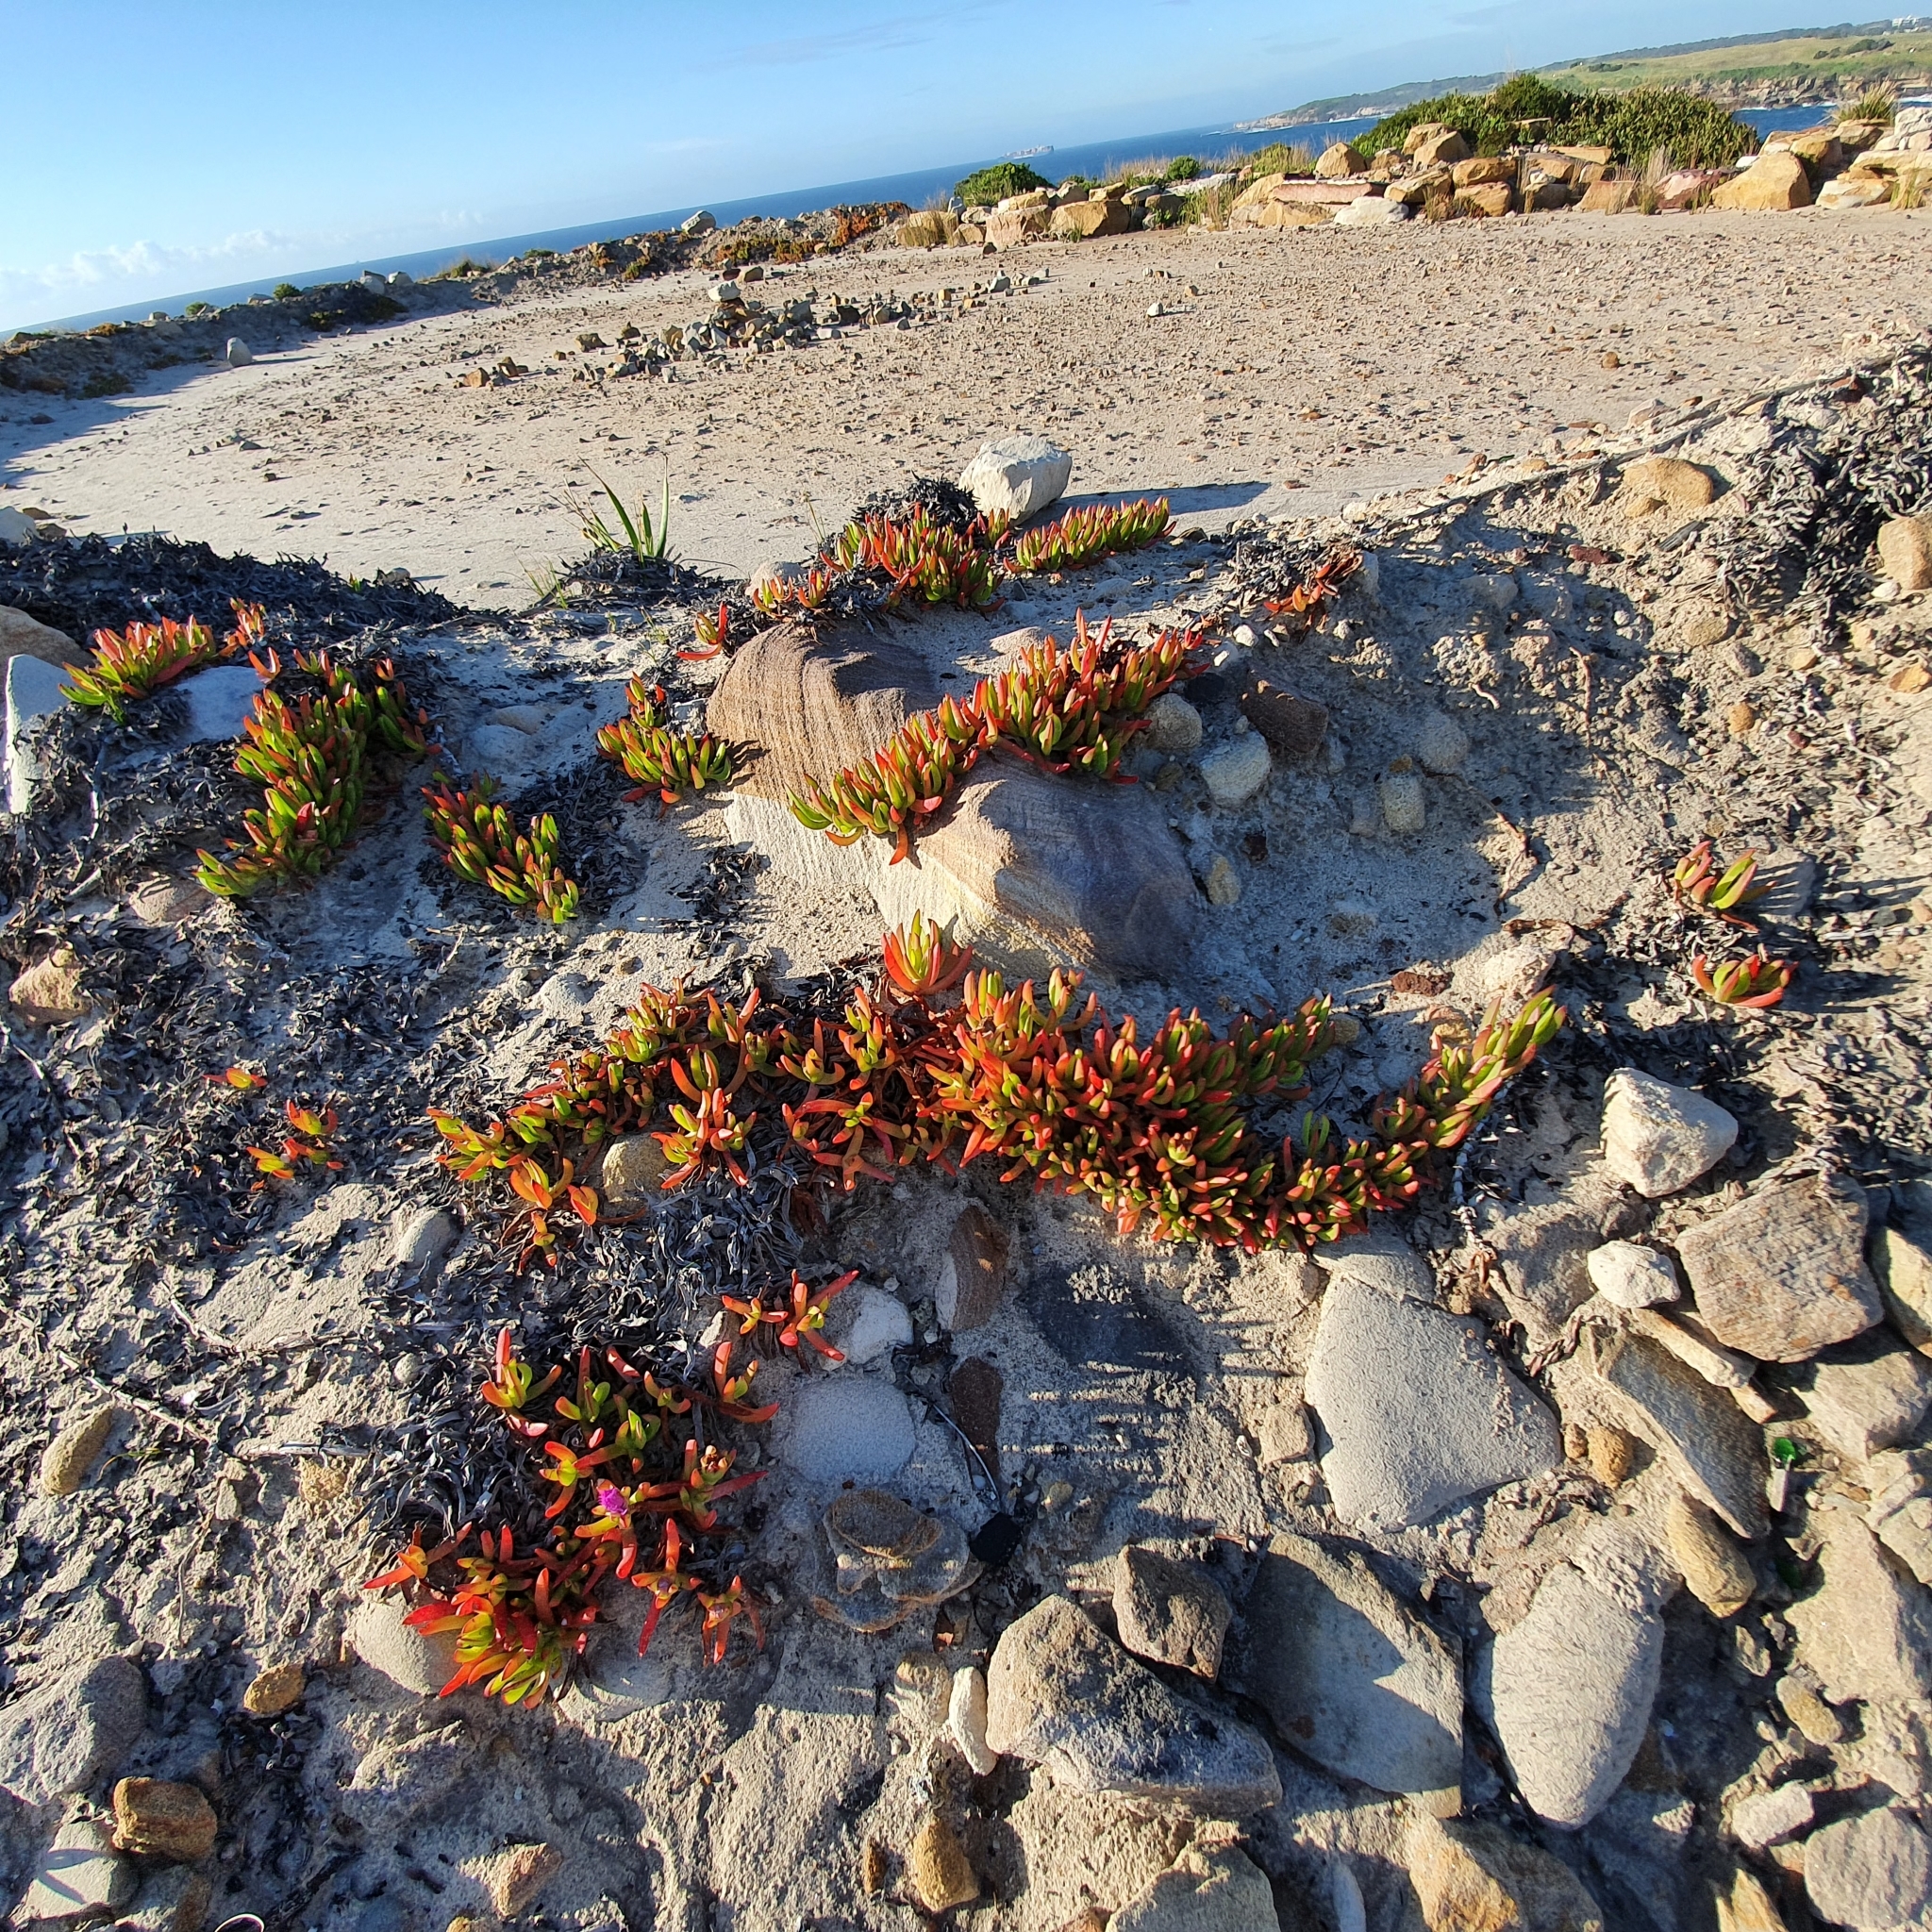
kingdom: Plantae
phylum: Tracheophyta
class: Magnoliopsida
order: Caryophyllales
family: Aizoaceae
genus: Carpobrotus
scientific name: Carpobrotus glaucescens
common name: Angular sea-fig
